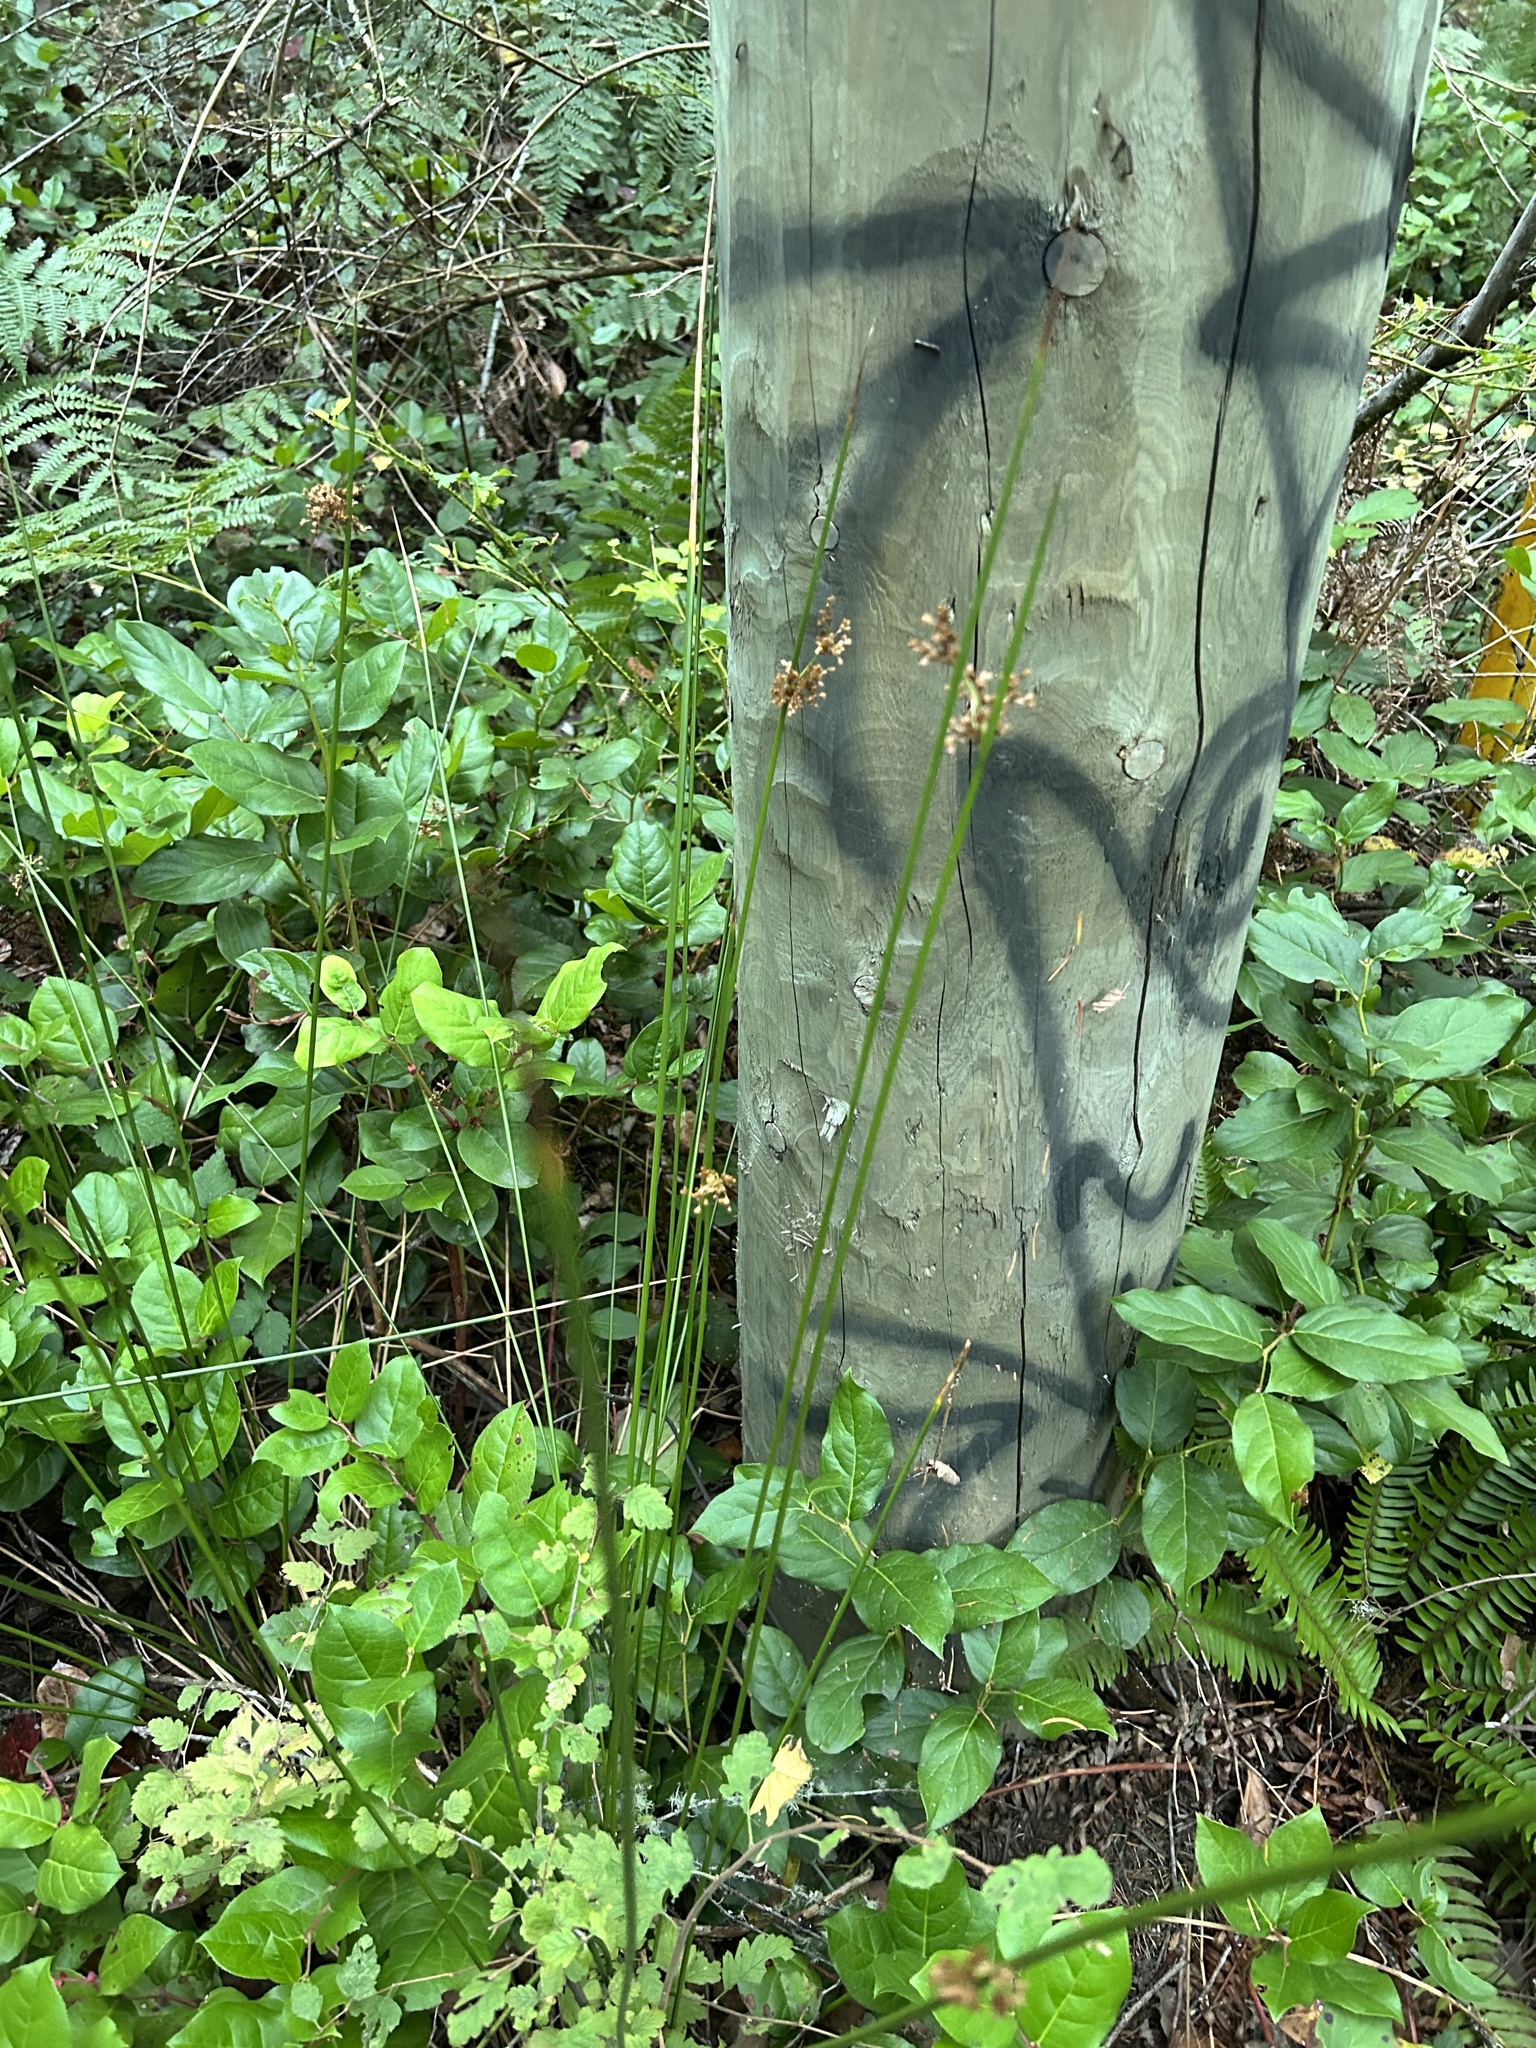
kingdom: Plantae
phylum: Tracheophyta
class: Liliopsida
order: Poales
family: Juncaceae
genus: Juncus
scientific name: Juncus effusus
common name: Soft rush
